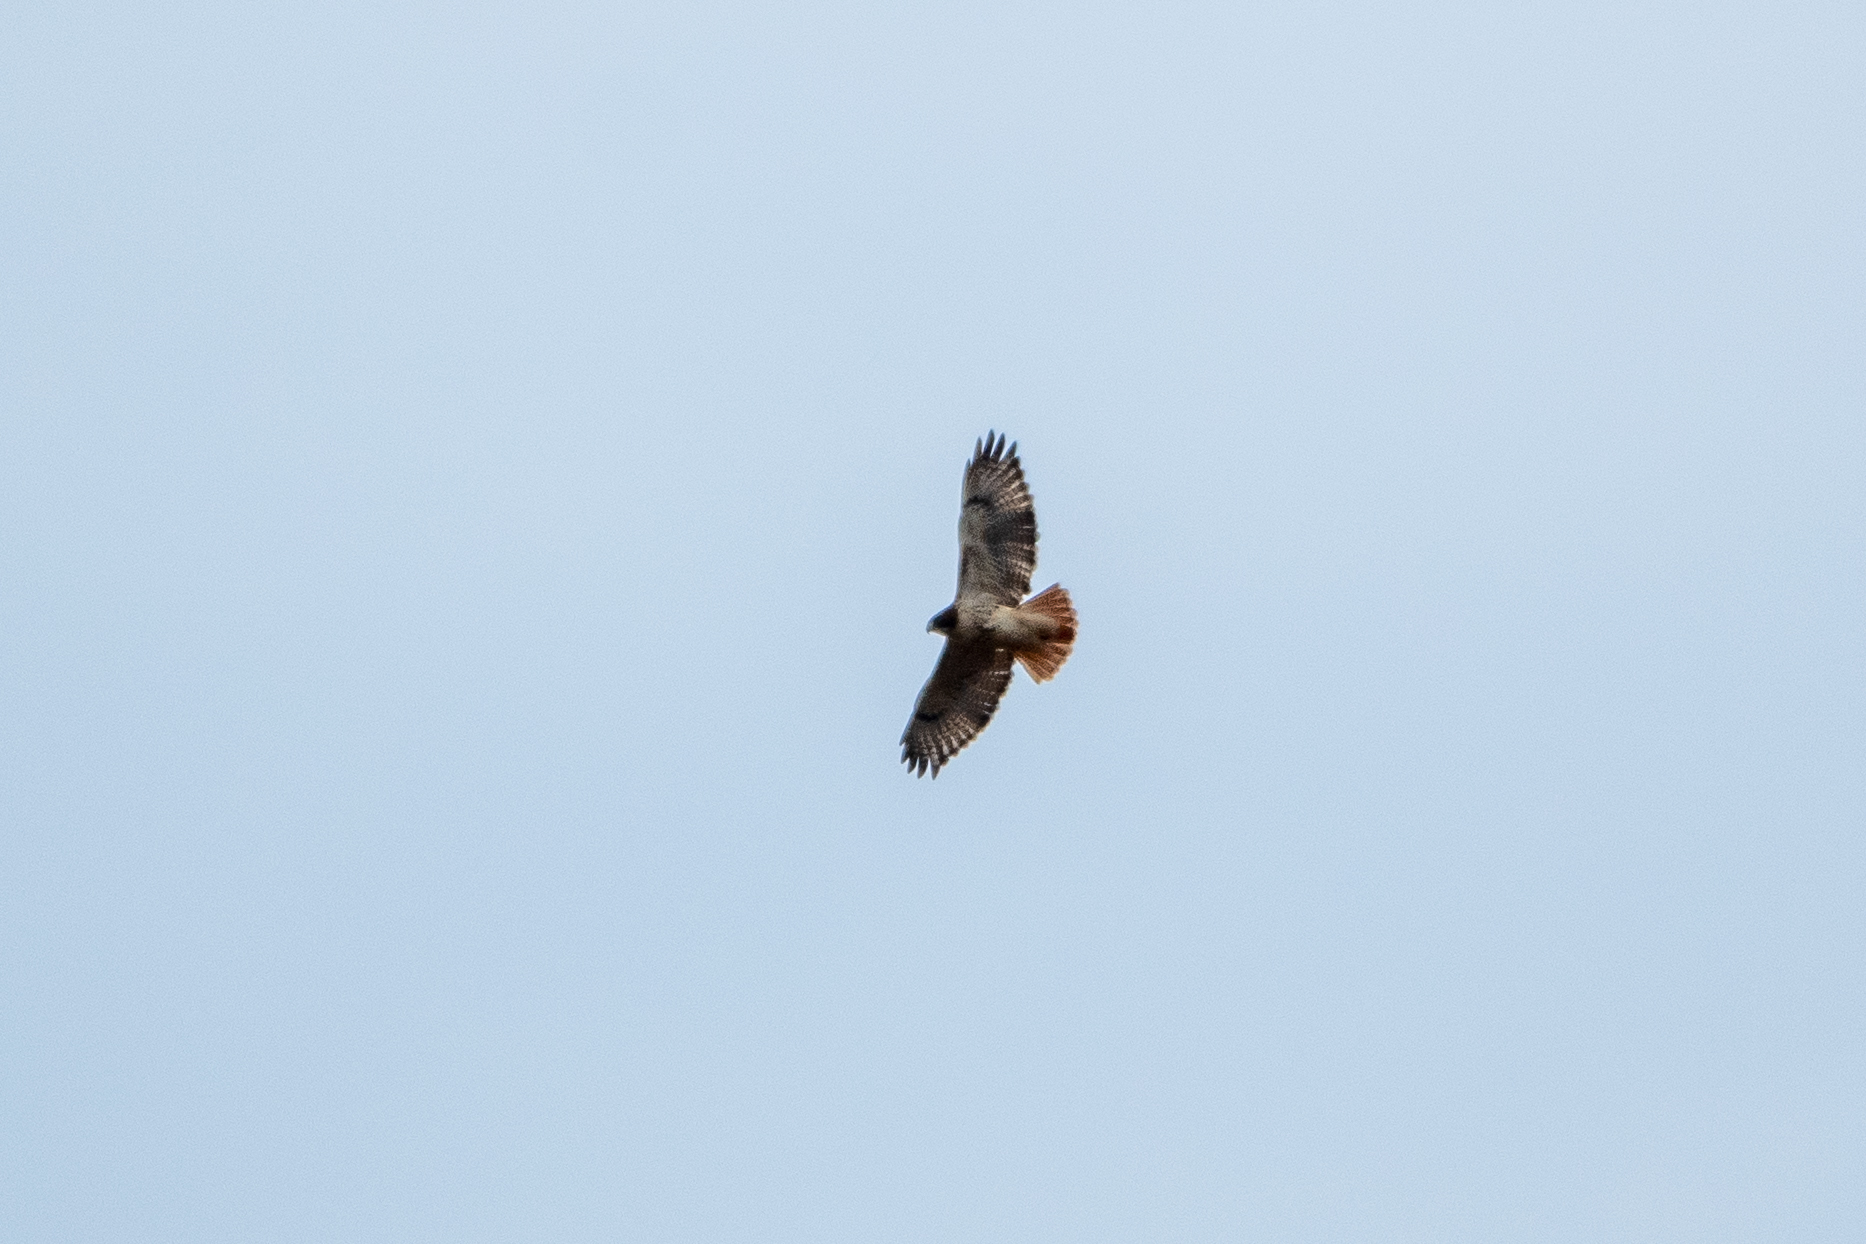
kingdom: Animalia
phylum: Chordata
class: Aves
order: Accipitriformes
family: Accipitridae
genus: Buteo
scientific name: Buteo jamaicensis
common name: Red-tailed hawk
